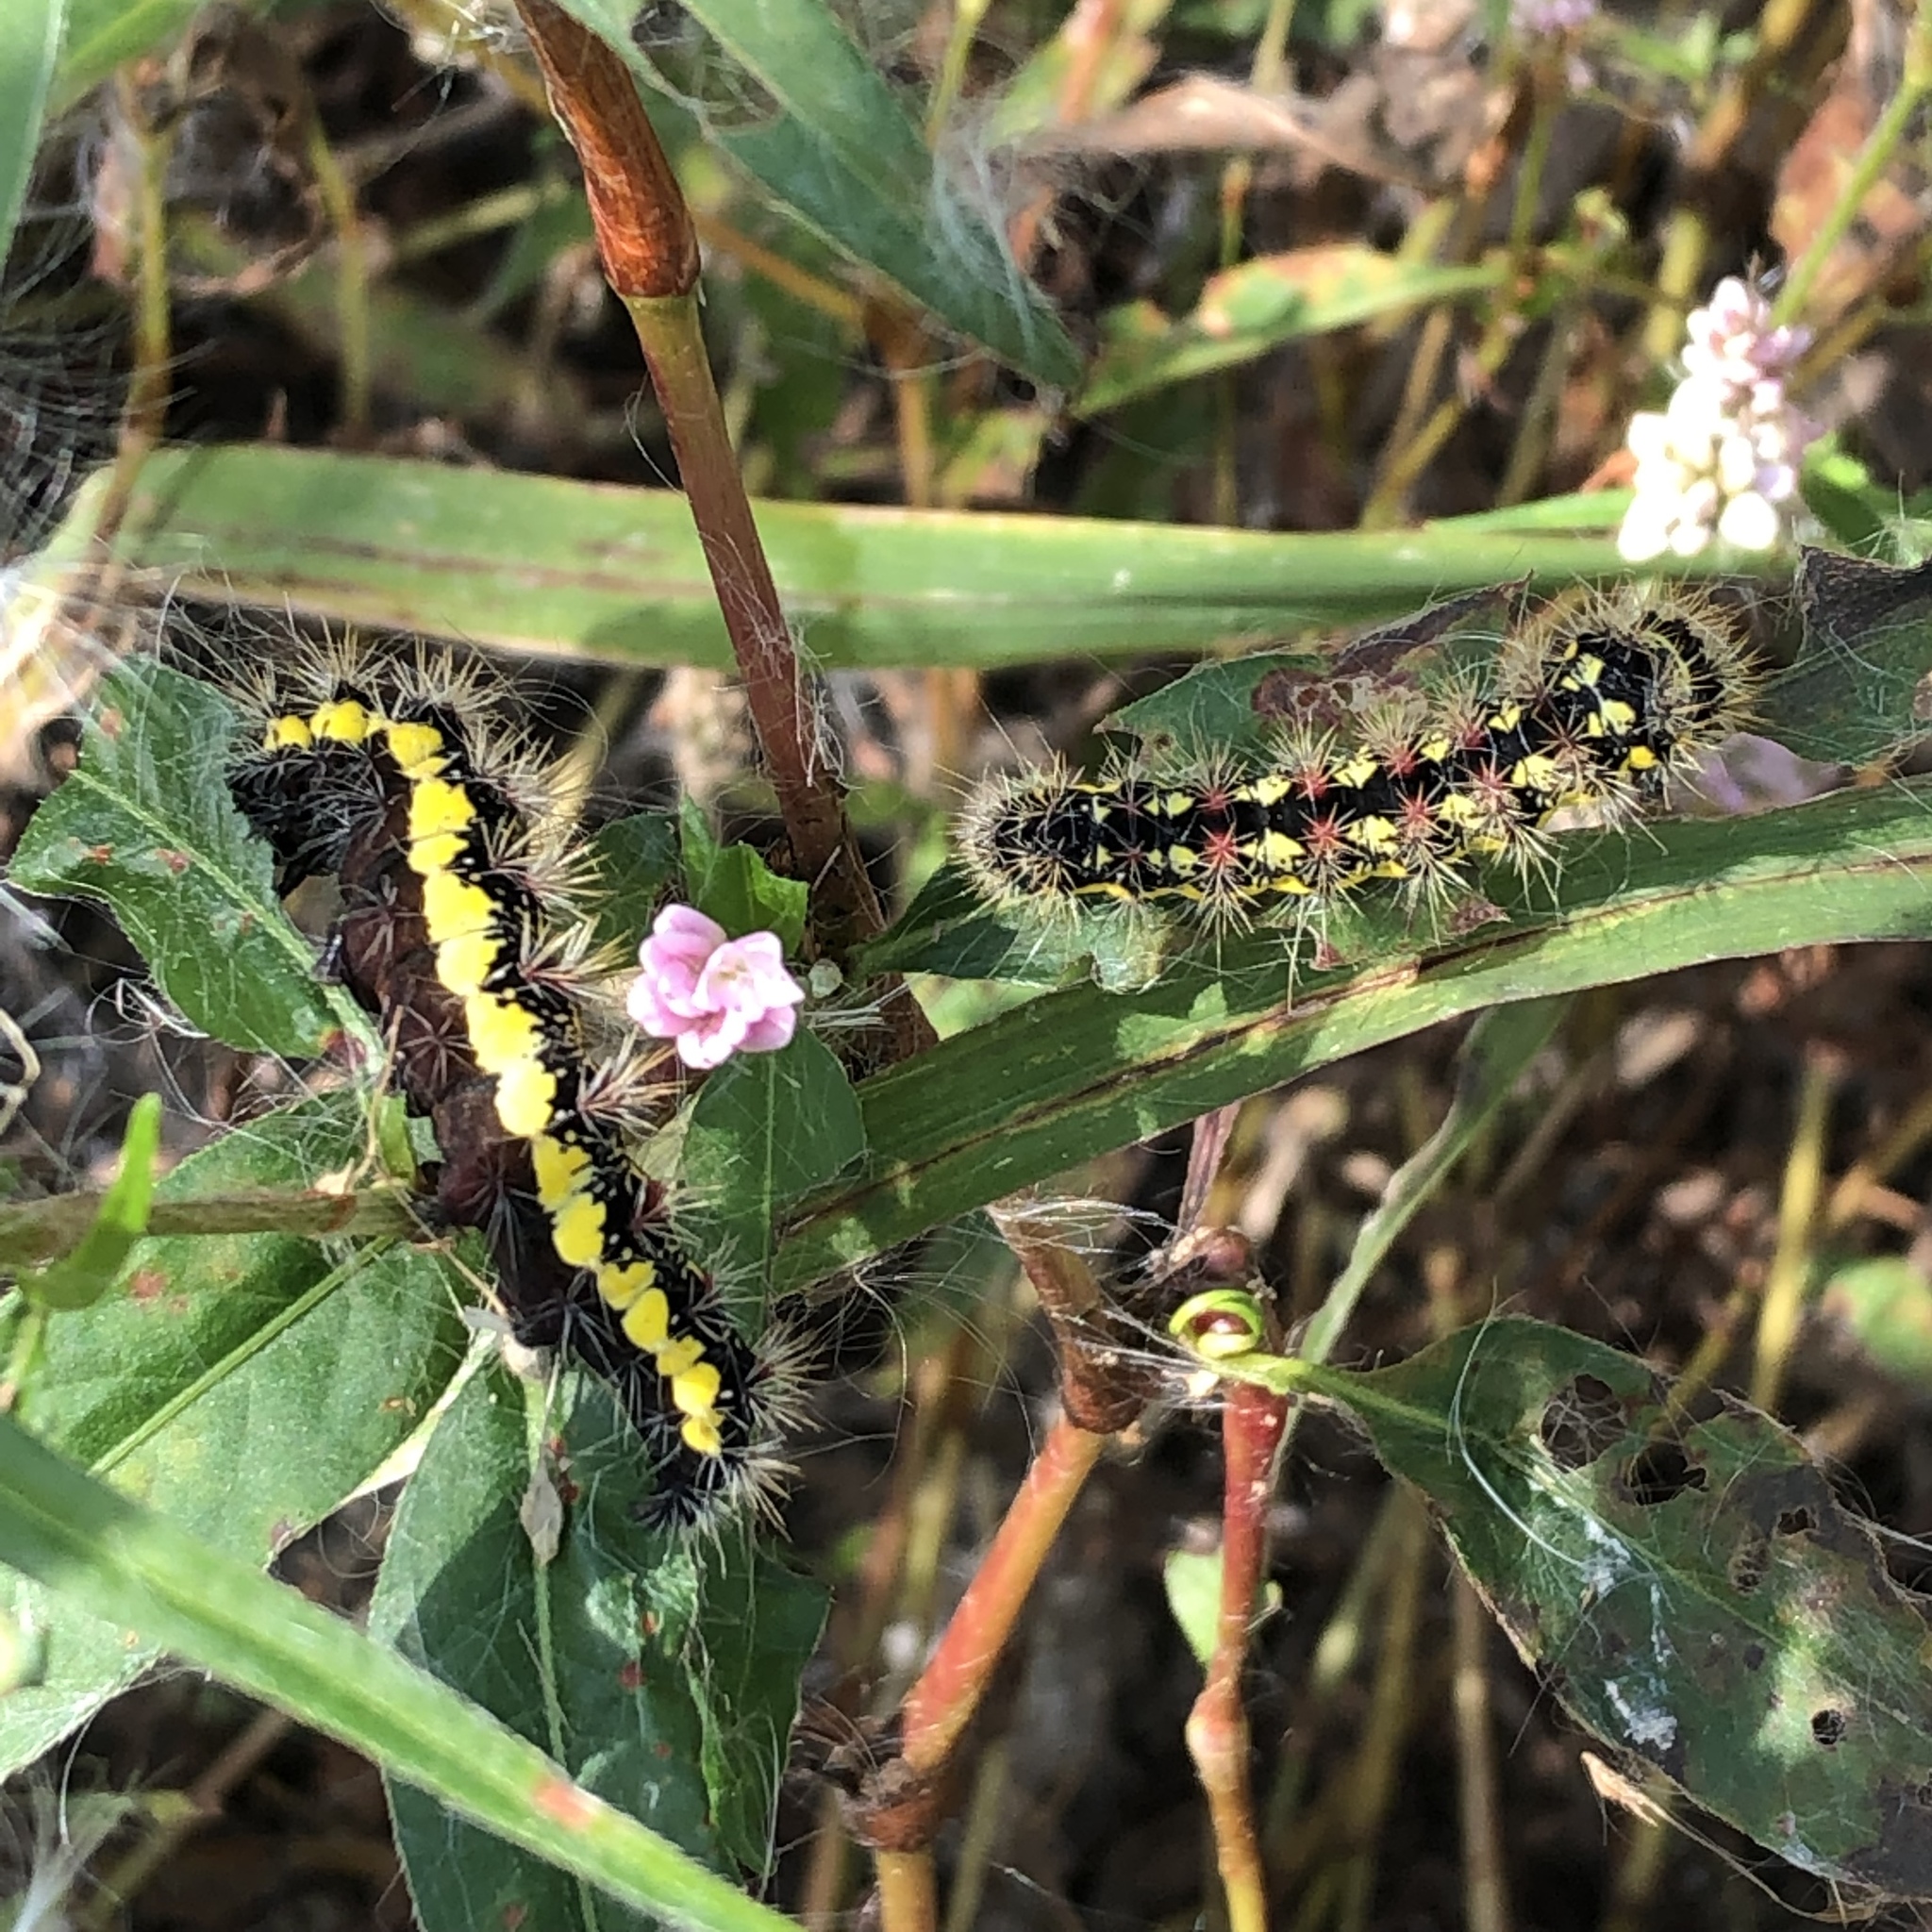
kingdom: Animalia
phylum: Arthropoda
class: Insecta
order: Lepidoptera
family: Noctuidae
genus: Acronicta
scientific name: Acronicta oblinita
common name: Smeared dagger
